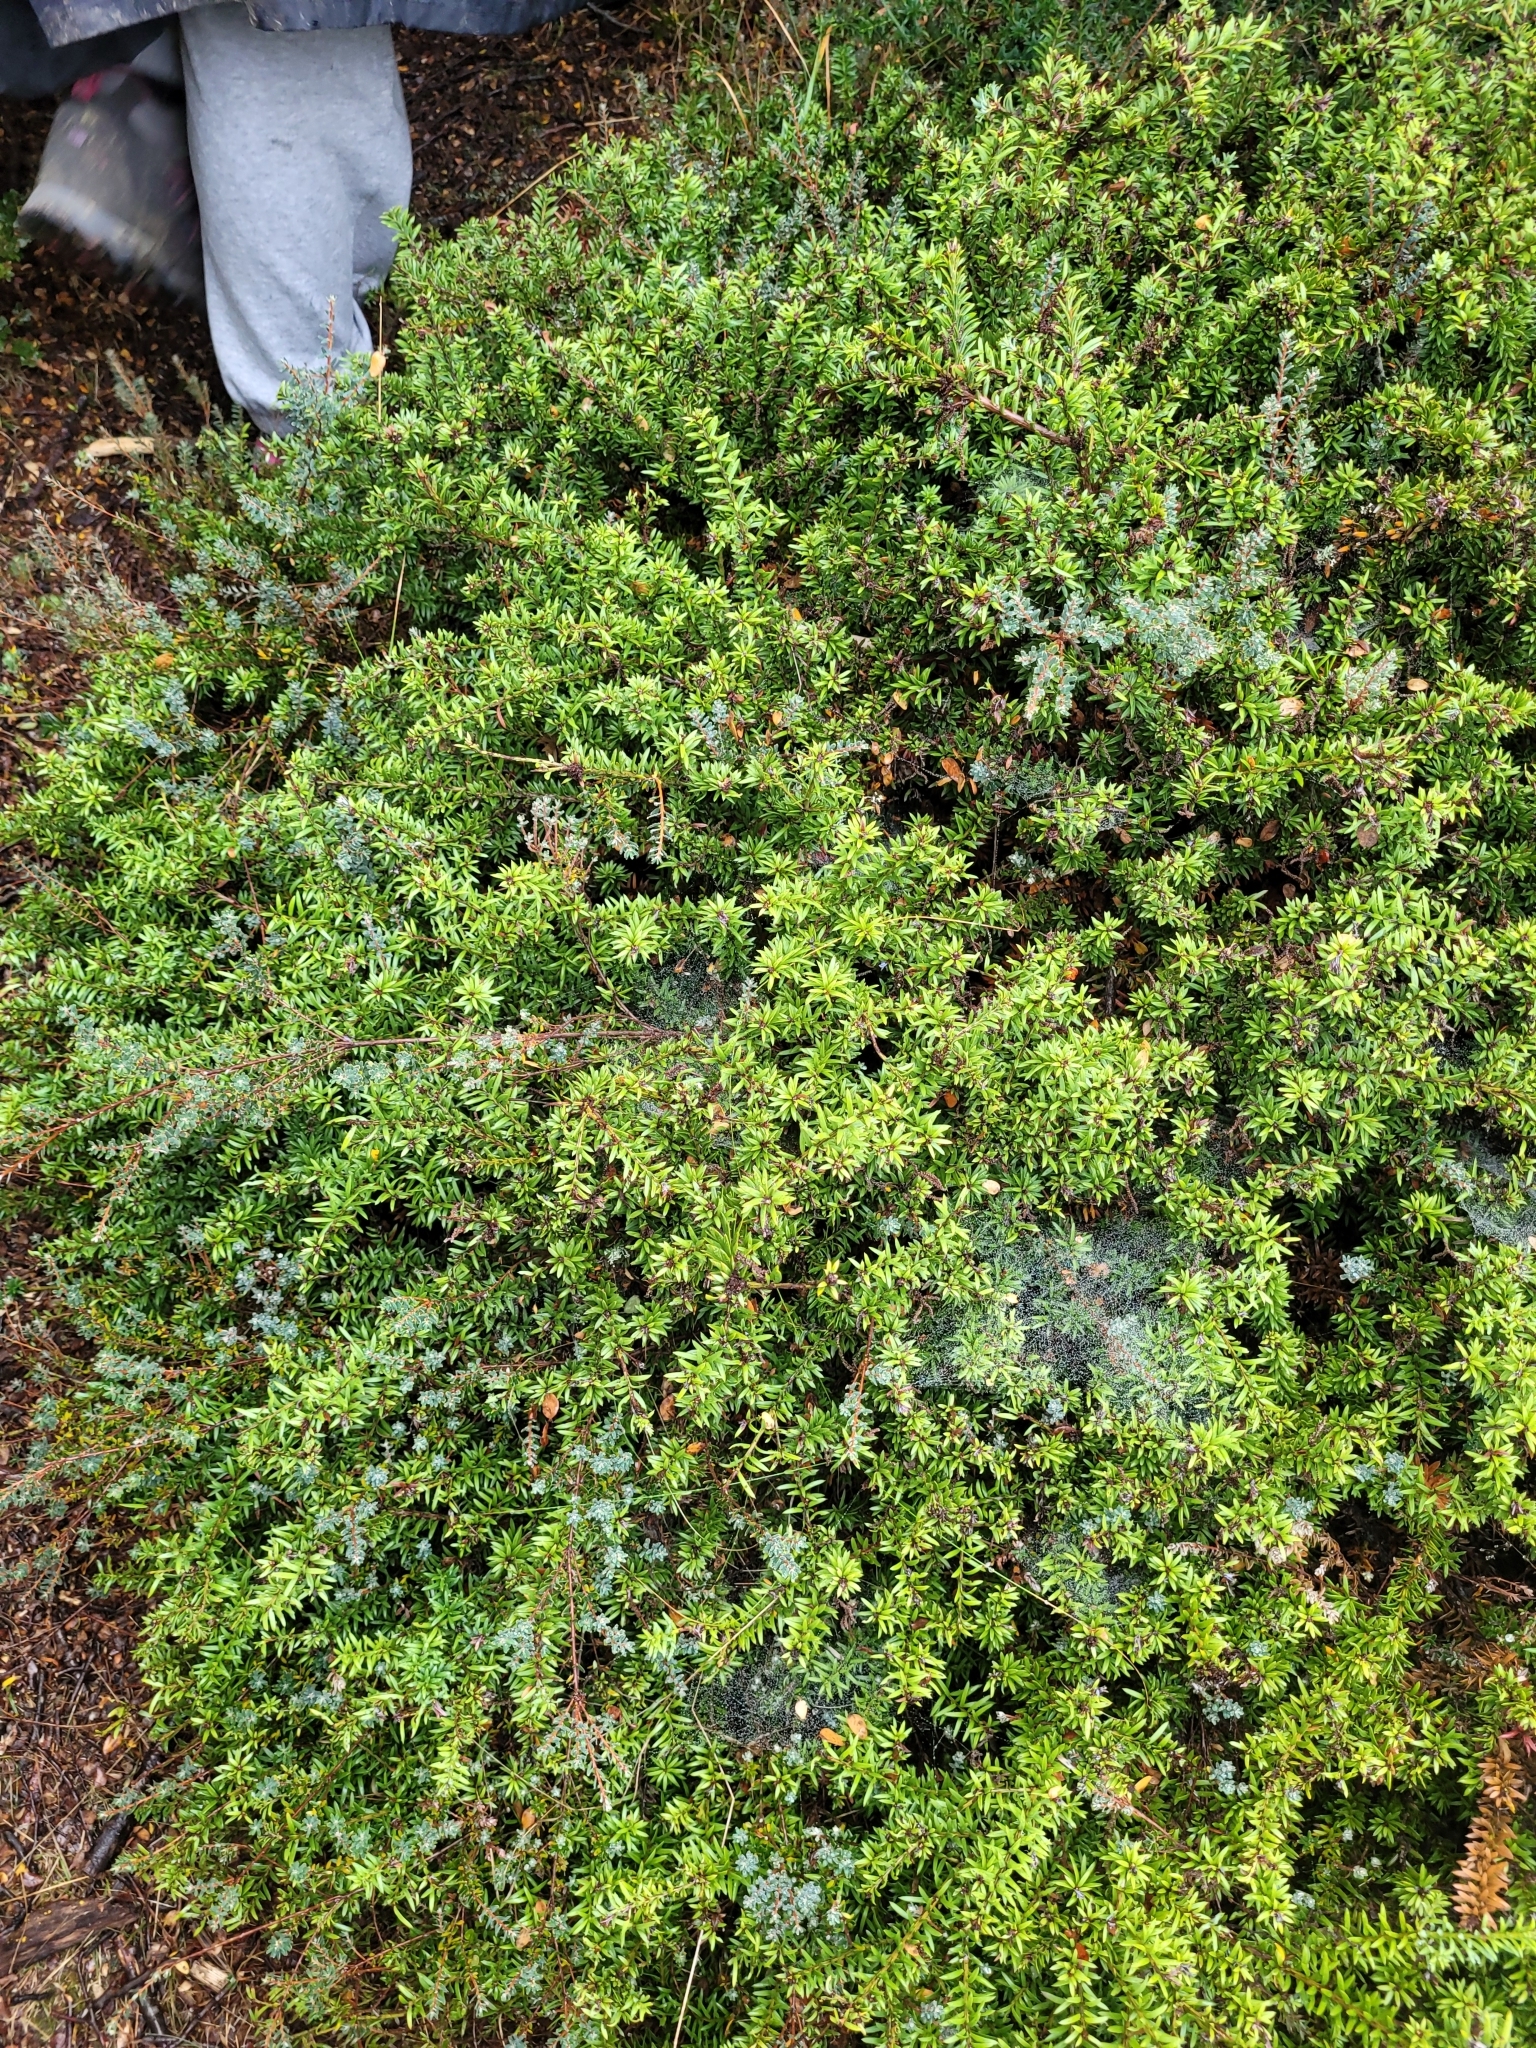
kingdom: Plantae
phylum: Tracheophyta
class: Pinopsida
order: Pinales
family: Podocarpaceae
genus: Podocarpus
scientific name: Podocarpus nivalis
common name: Alpine totara
